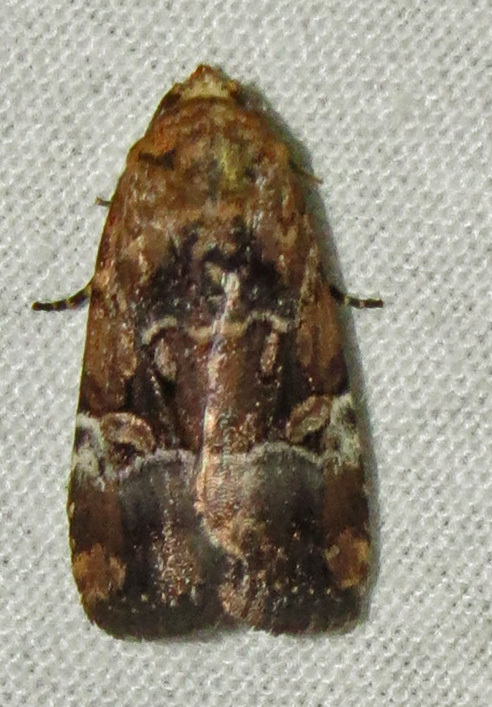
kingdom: Animalia
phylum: Arthropoda
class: Insecta
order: Lepidoptera
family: Noctuidae
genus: Elaphria
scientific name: Elaphria chalcedonia
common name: Chalcedony midget
